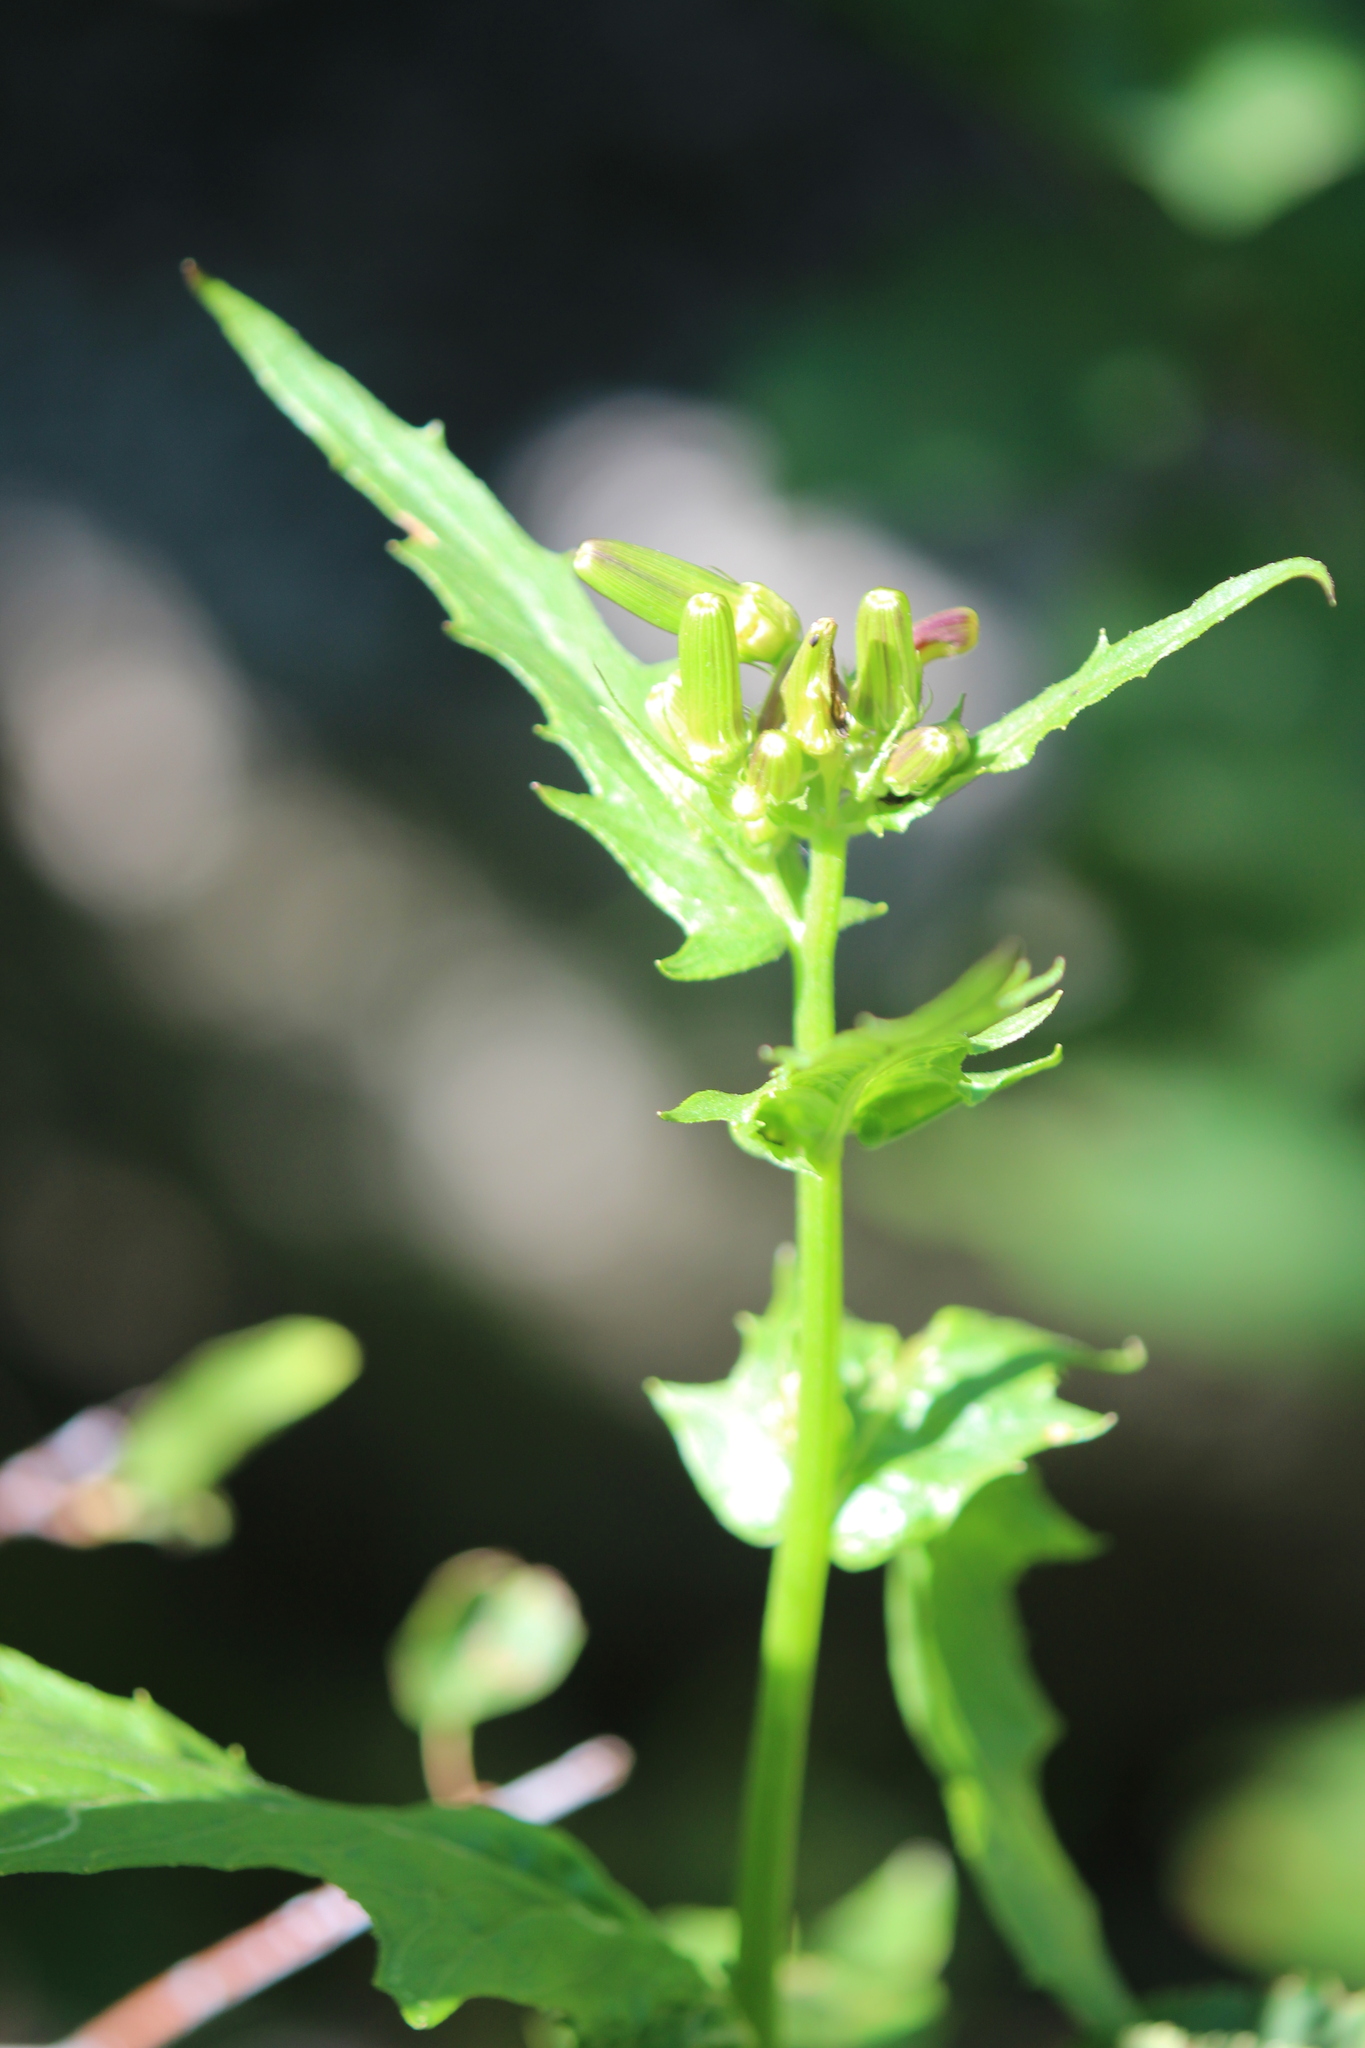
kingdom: Plantae
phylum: Tracheophyta
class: Magnoliopsida
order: Asterales
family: Asteraceae
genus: Erechtites
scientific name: Erechtites hieraciifolius
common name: American burnweed
